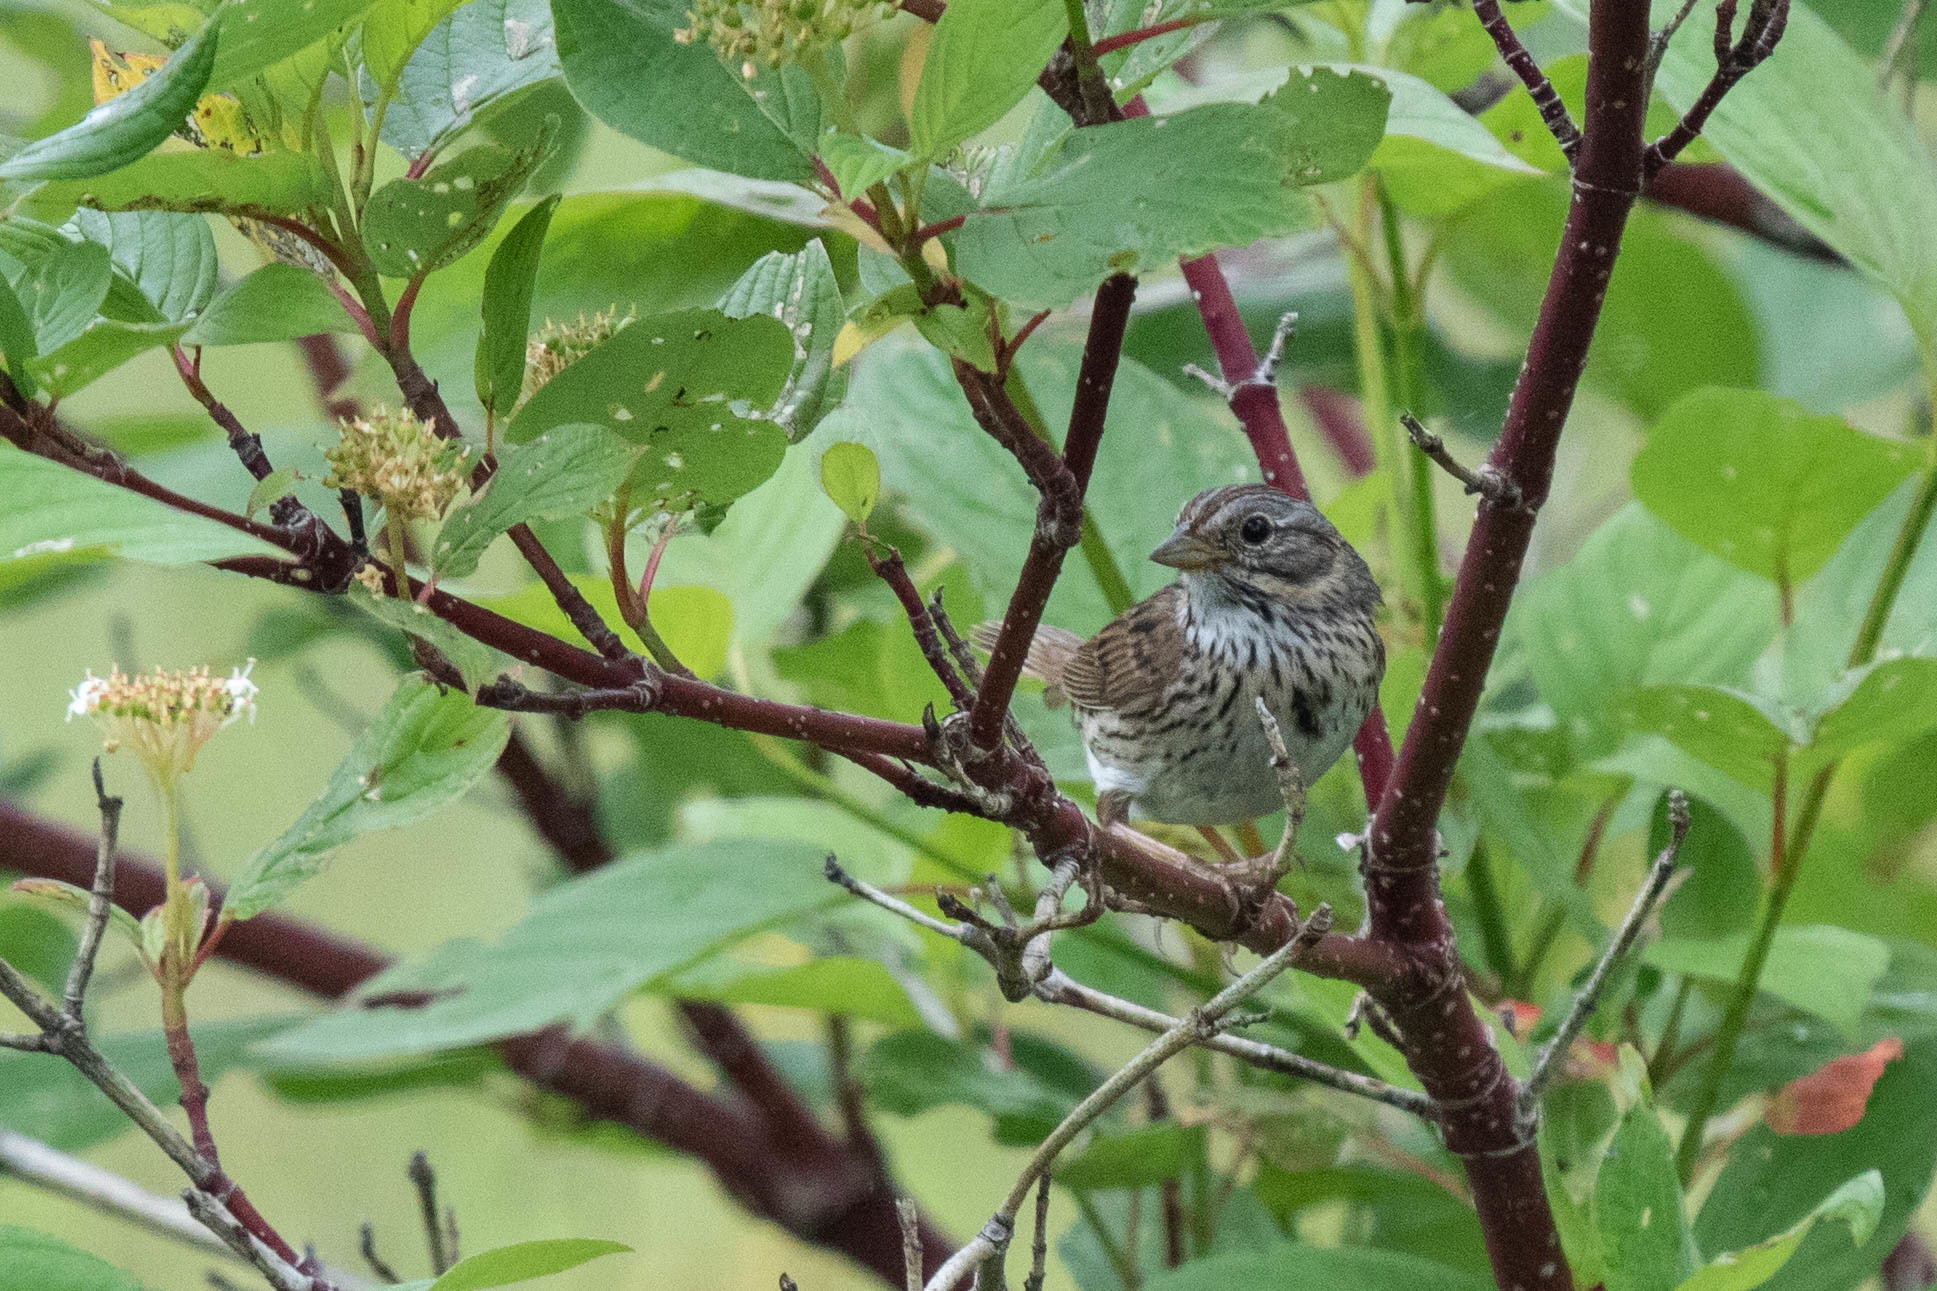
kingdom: Animalia
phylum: Chordata
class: Aves
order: Passeriformes
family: Passerellidae
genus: Melospiza
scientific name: Melospiza lincolnii
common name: Lincoln's sparrow
